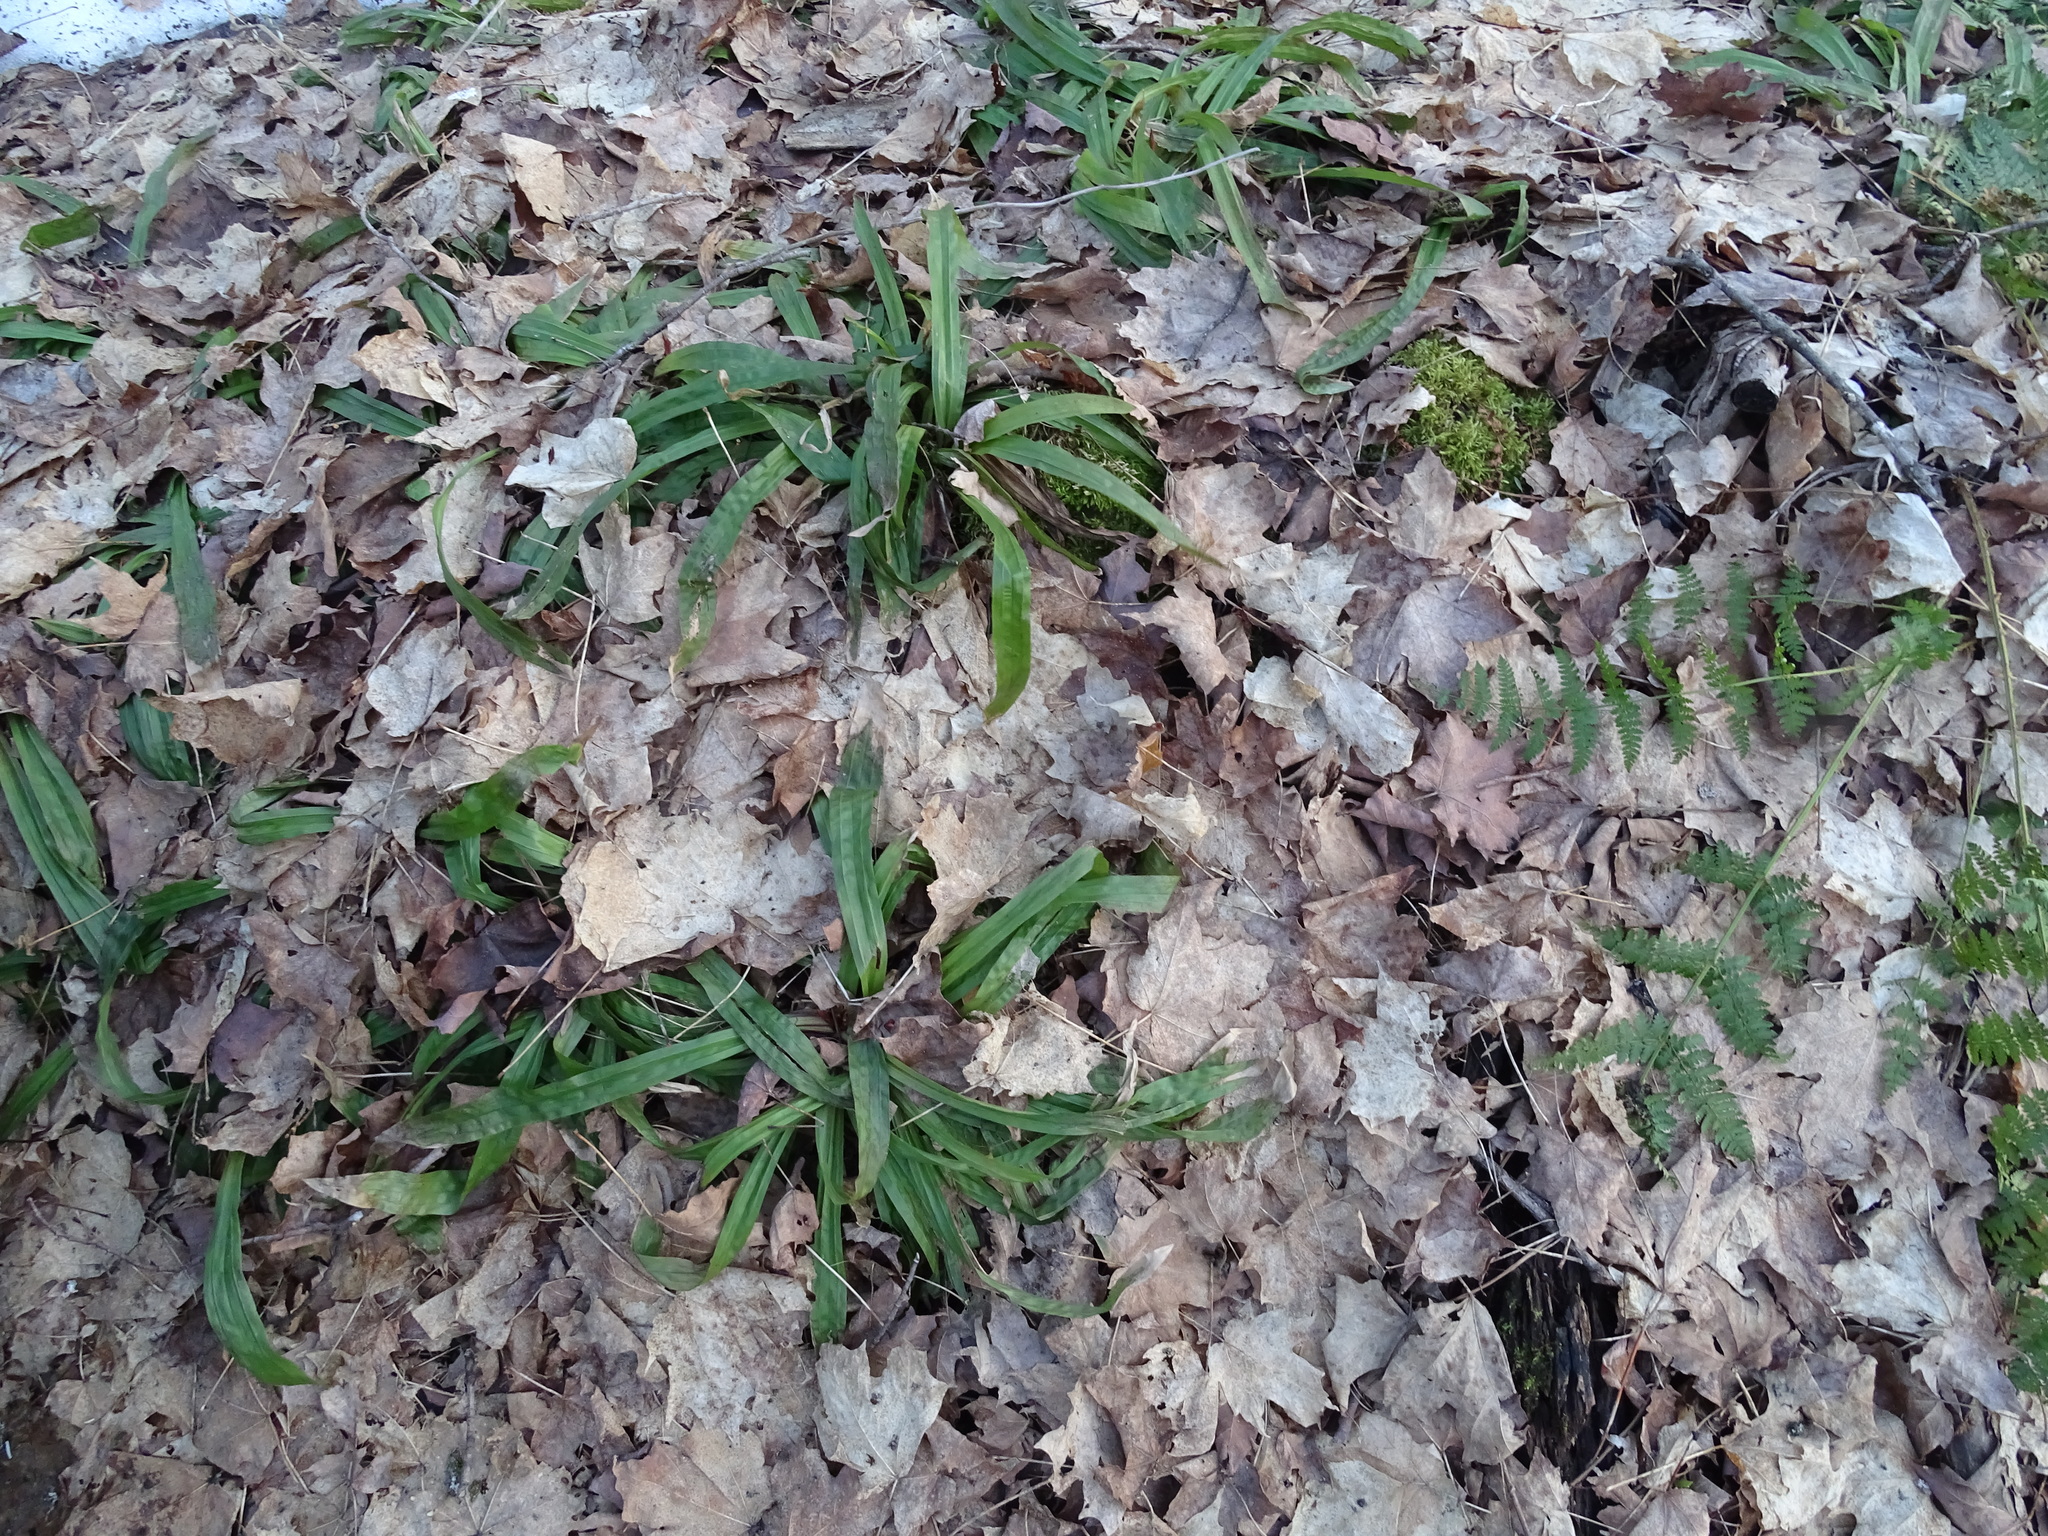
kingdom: Plantae
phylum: Tracheophyta
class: Liliopsida
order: Poales
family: Cyperaceae
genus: Carex
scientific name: Carex plantaginea
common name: Plantain-leaved sedge
